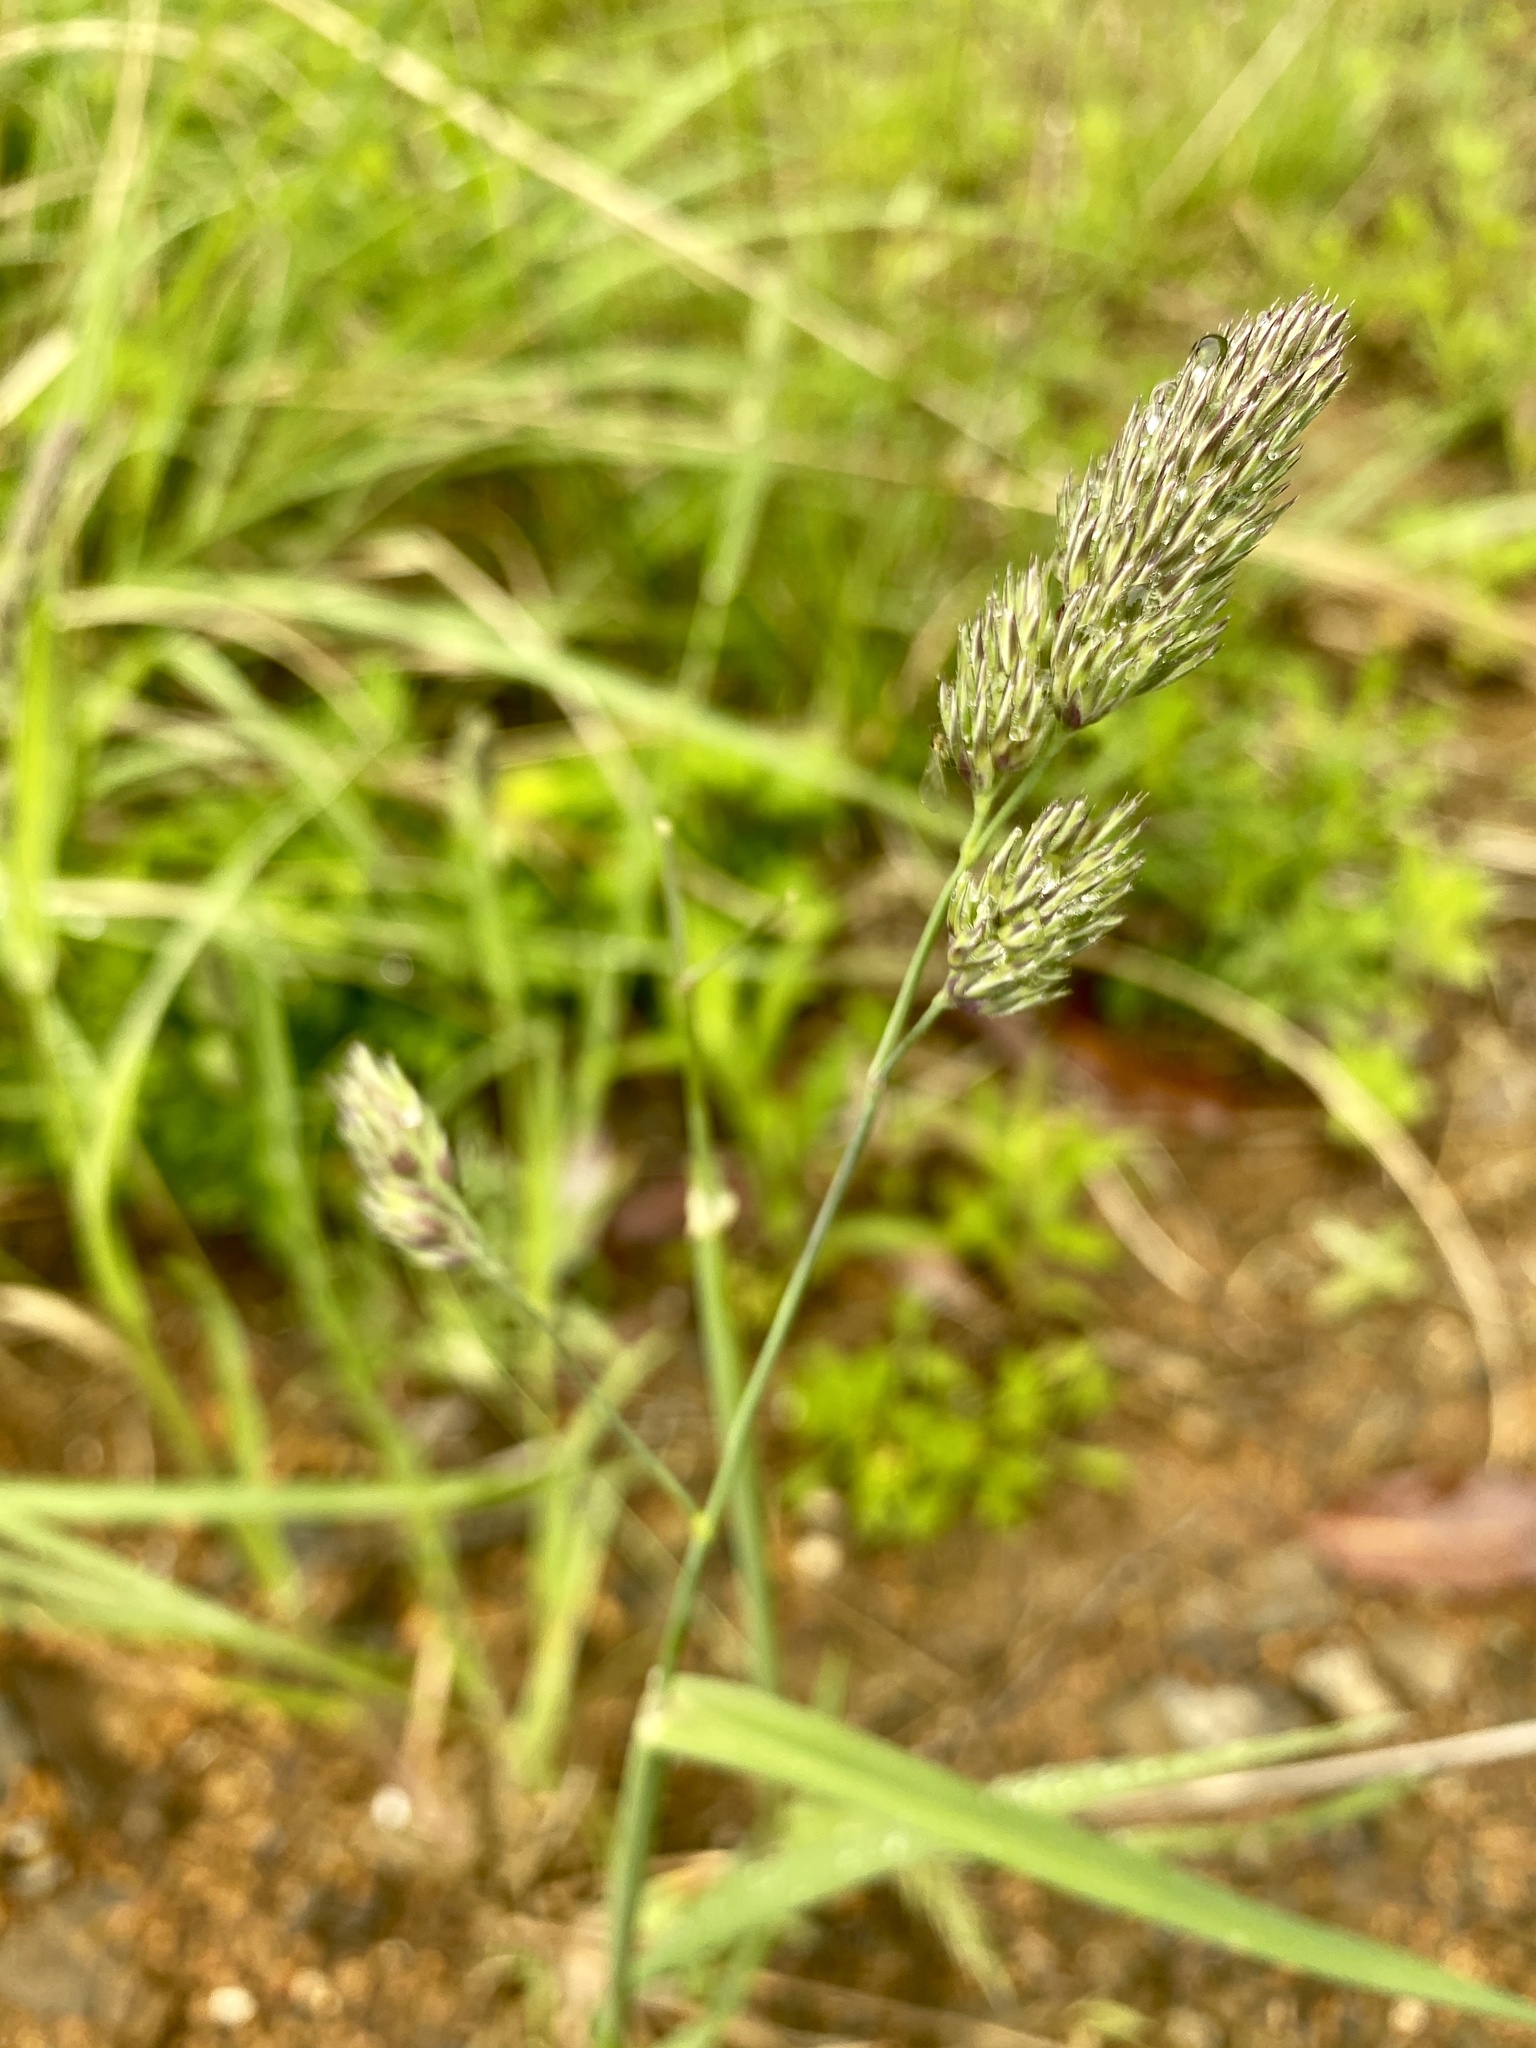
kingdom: Plantae
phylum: Tracheophyta
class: Liliopsida
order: Poales
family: Poaceae
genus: Dactylis
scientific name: Dactylis glomerata
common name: Orchardgrass
